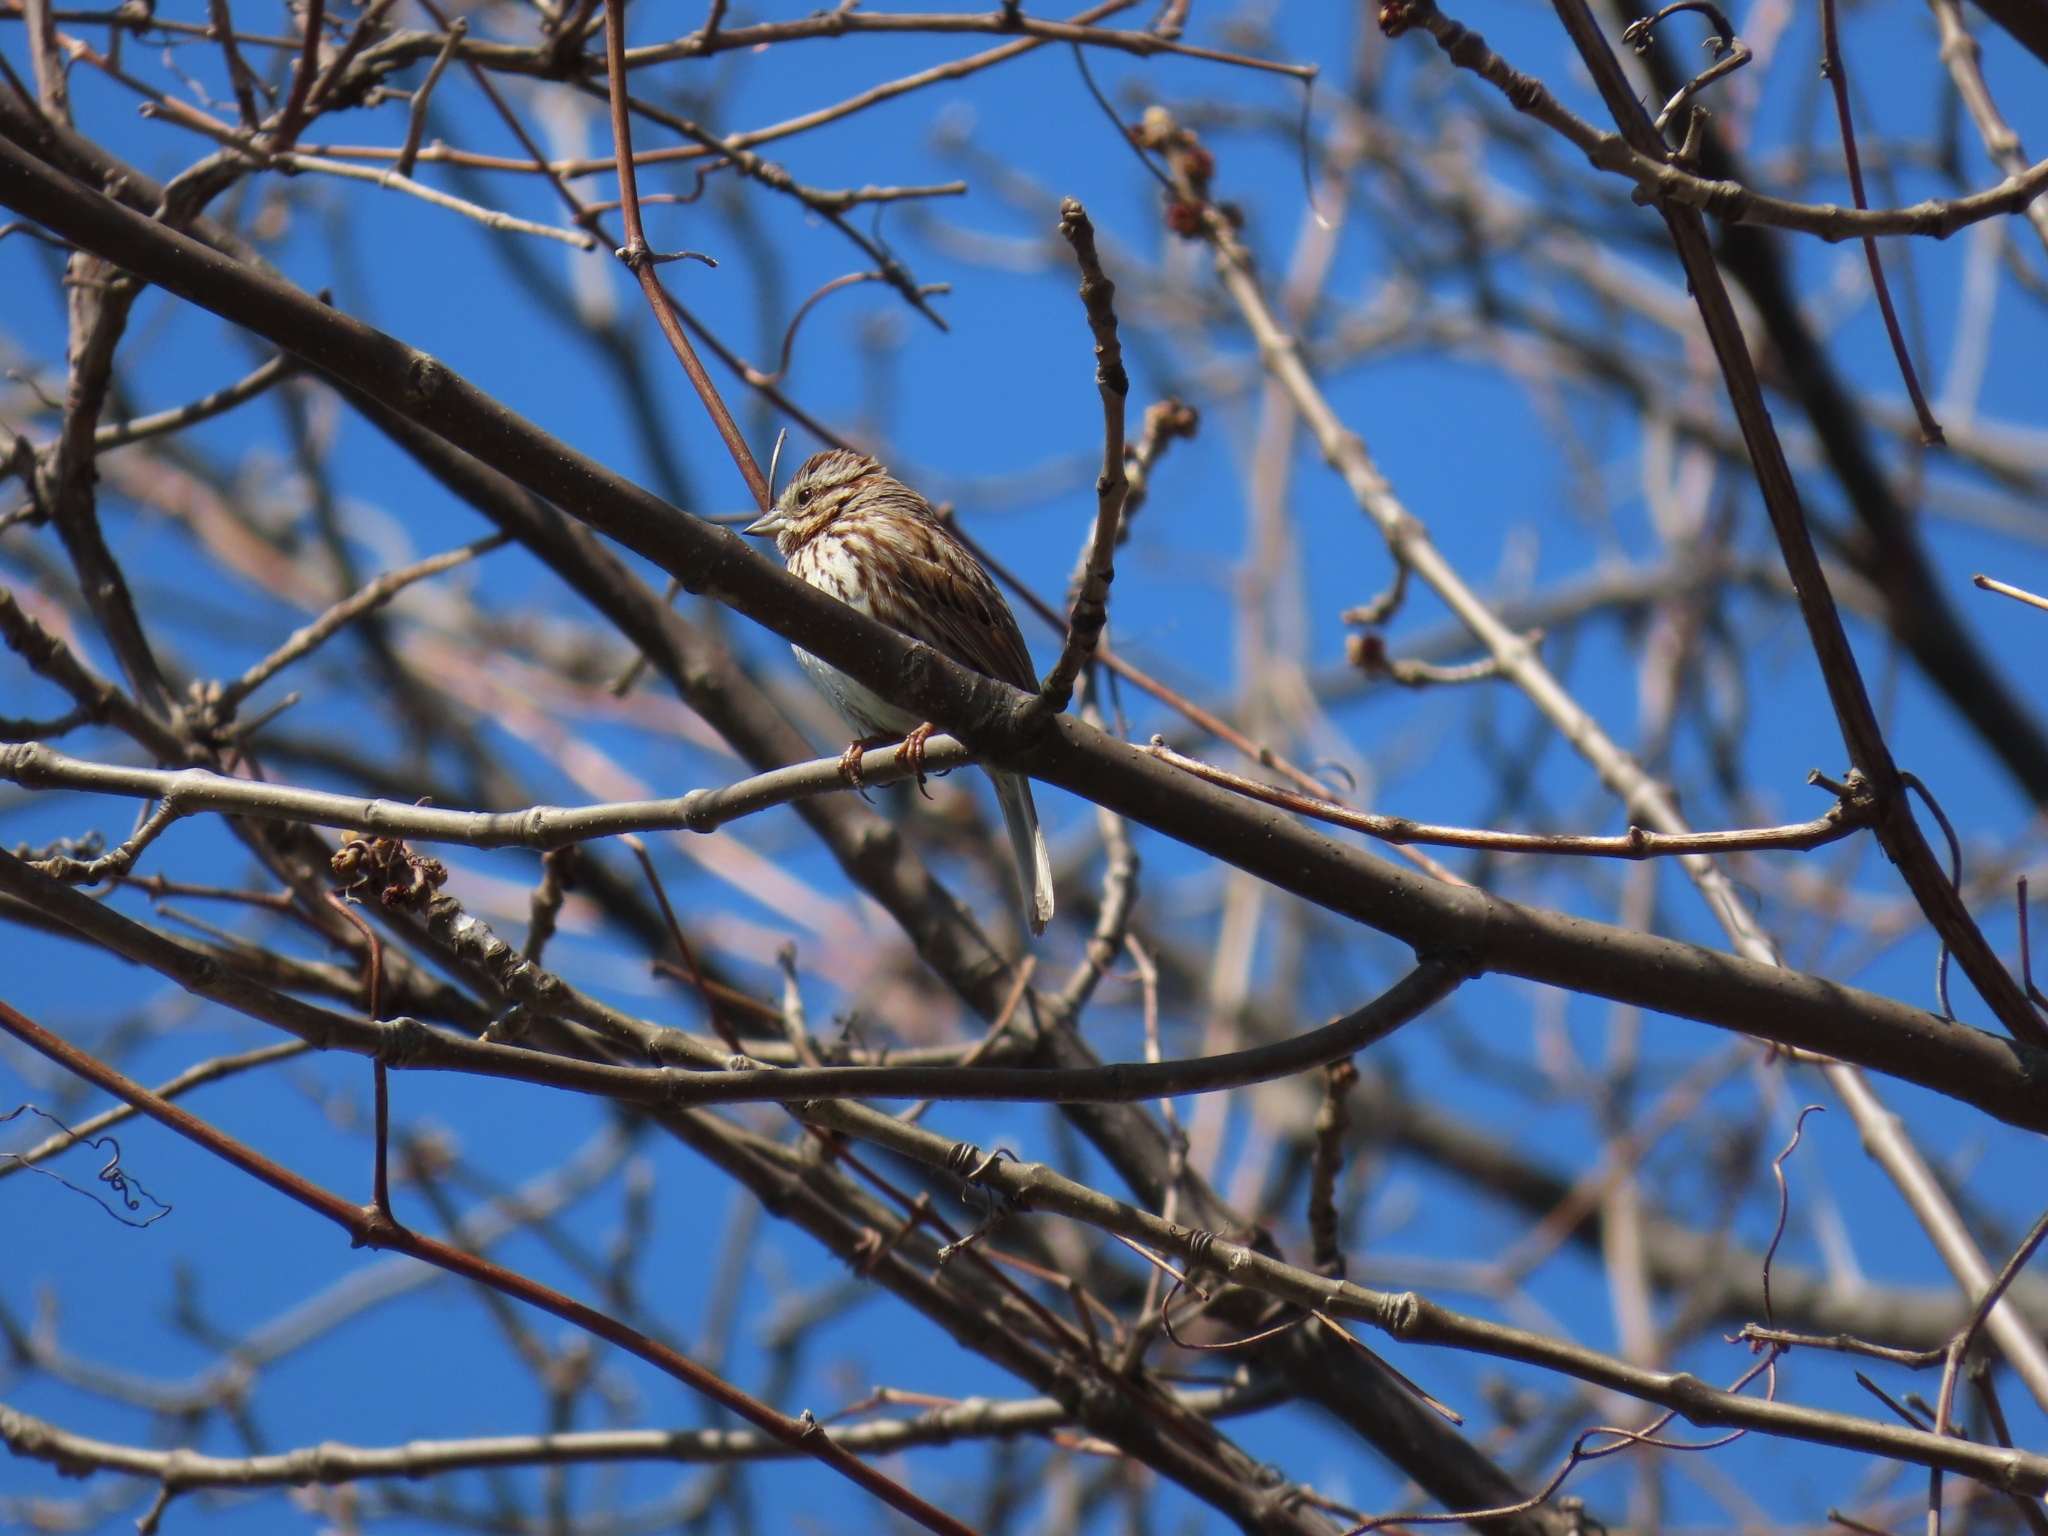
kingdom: Animalia
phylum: Chordata
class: Aves
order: Passeriformes
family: Passerellidae
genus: Melospiza
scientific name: Melospiza melodia
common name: Song sparrow
